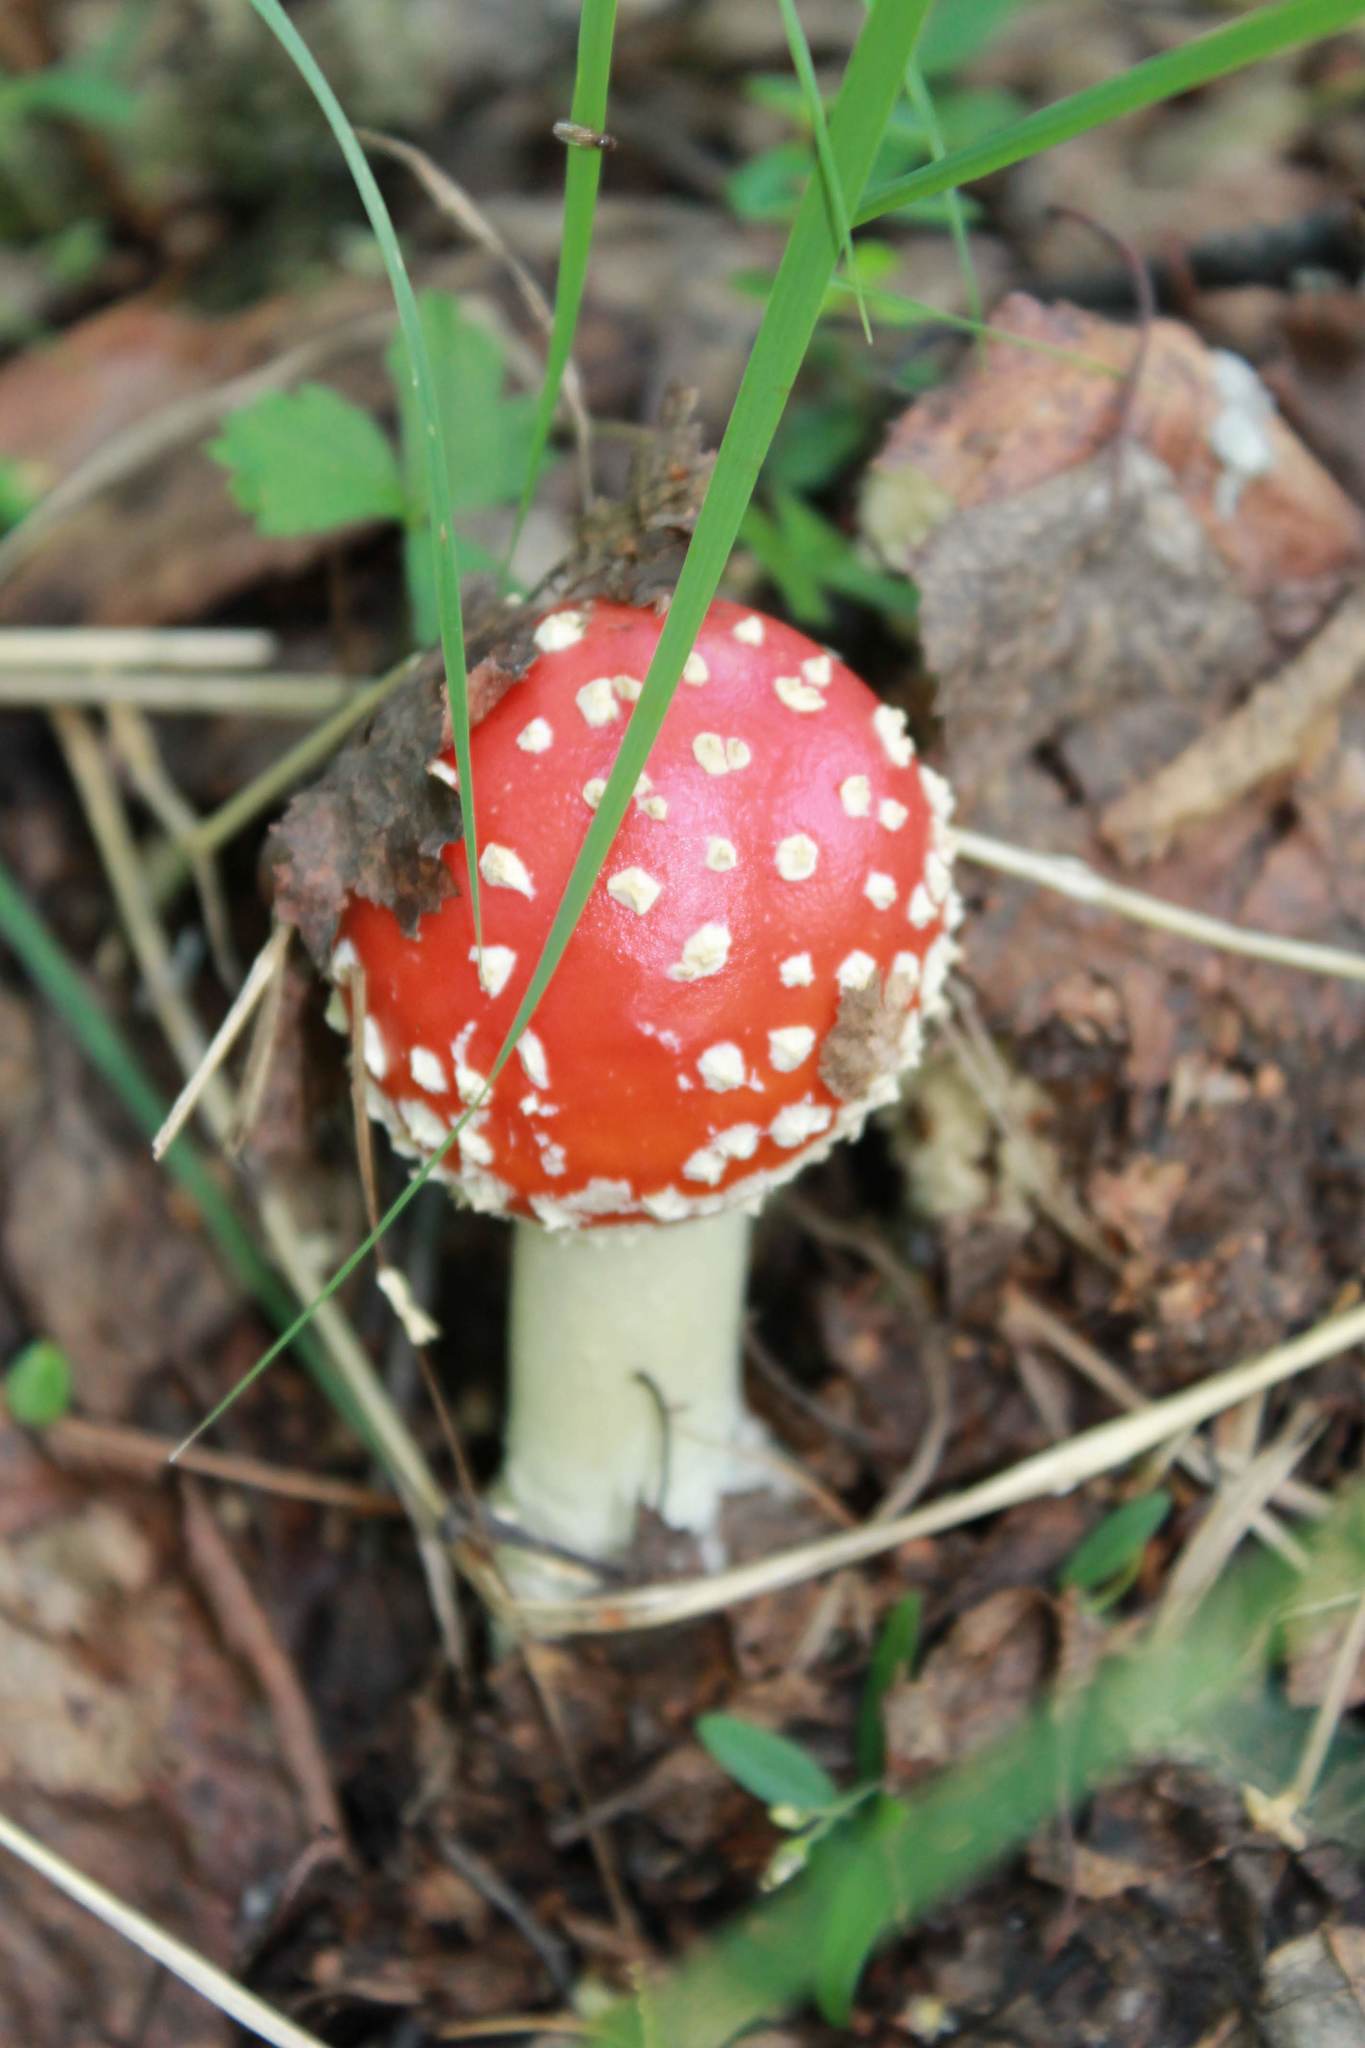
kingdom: Fungi
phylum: Basidiomycota
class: Agaricomycetes
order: Agaricales
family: Amanitaceae
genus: Amanita
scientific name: Amanita muscaria
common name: Fly agaric
